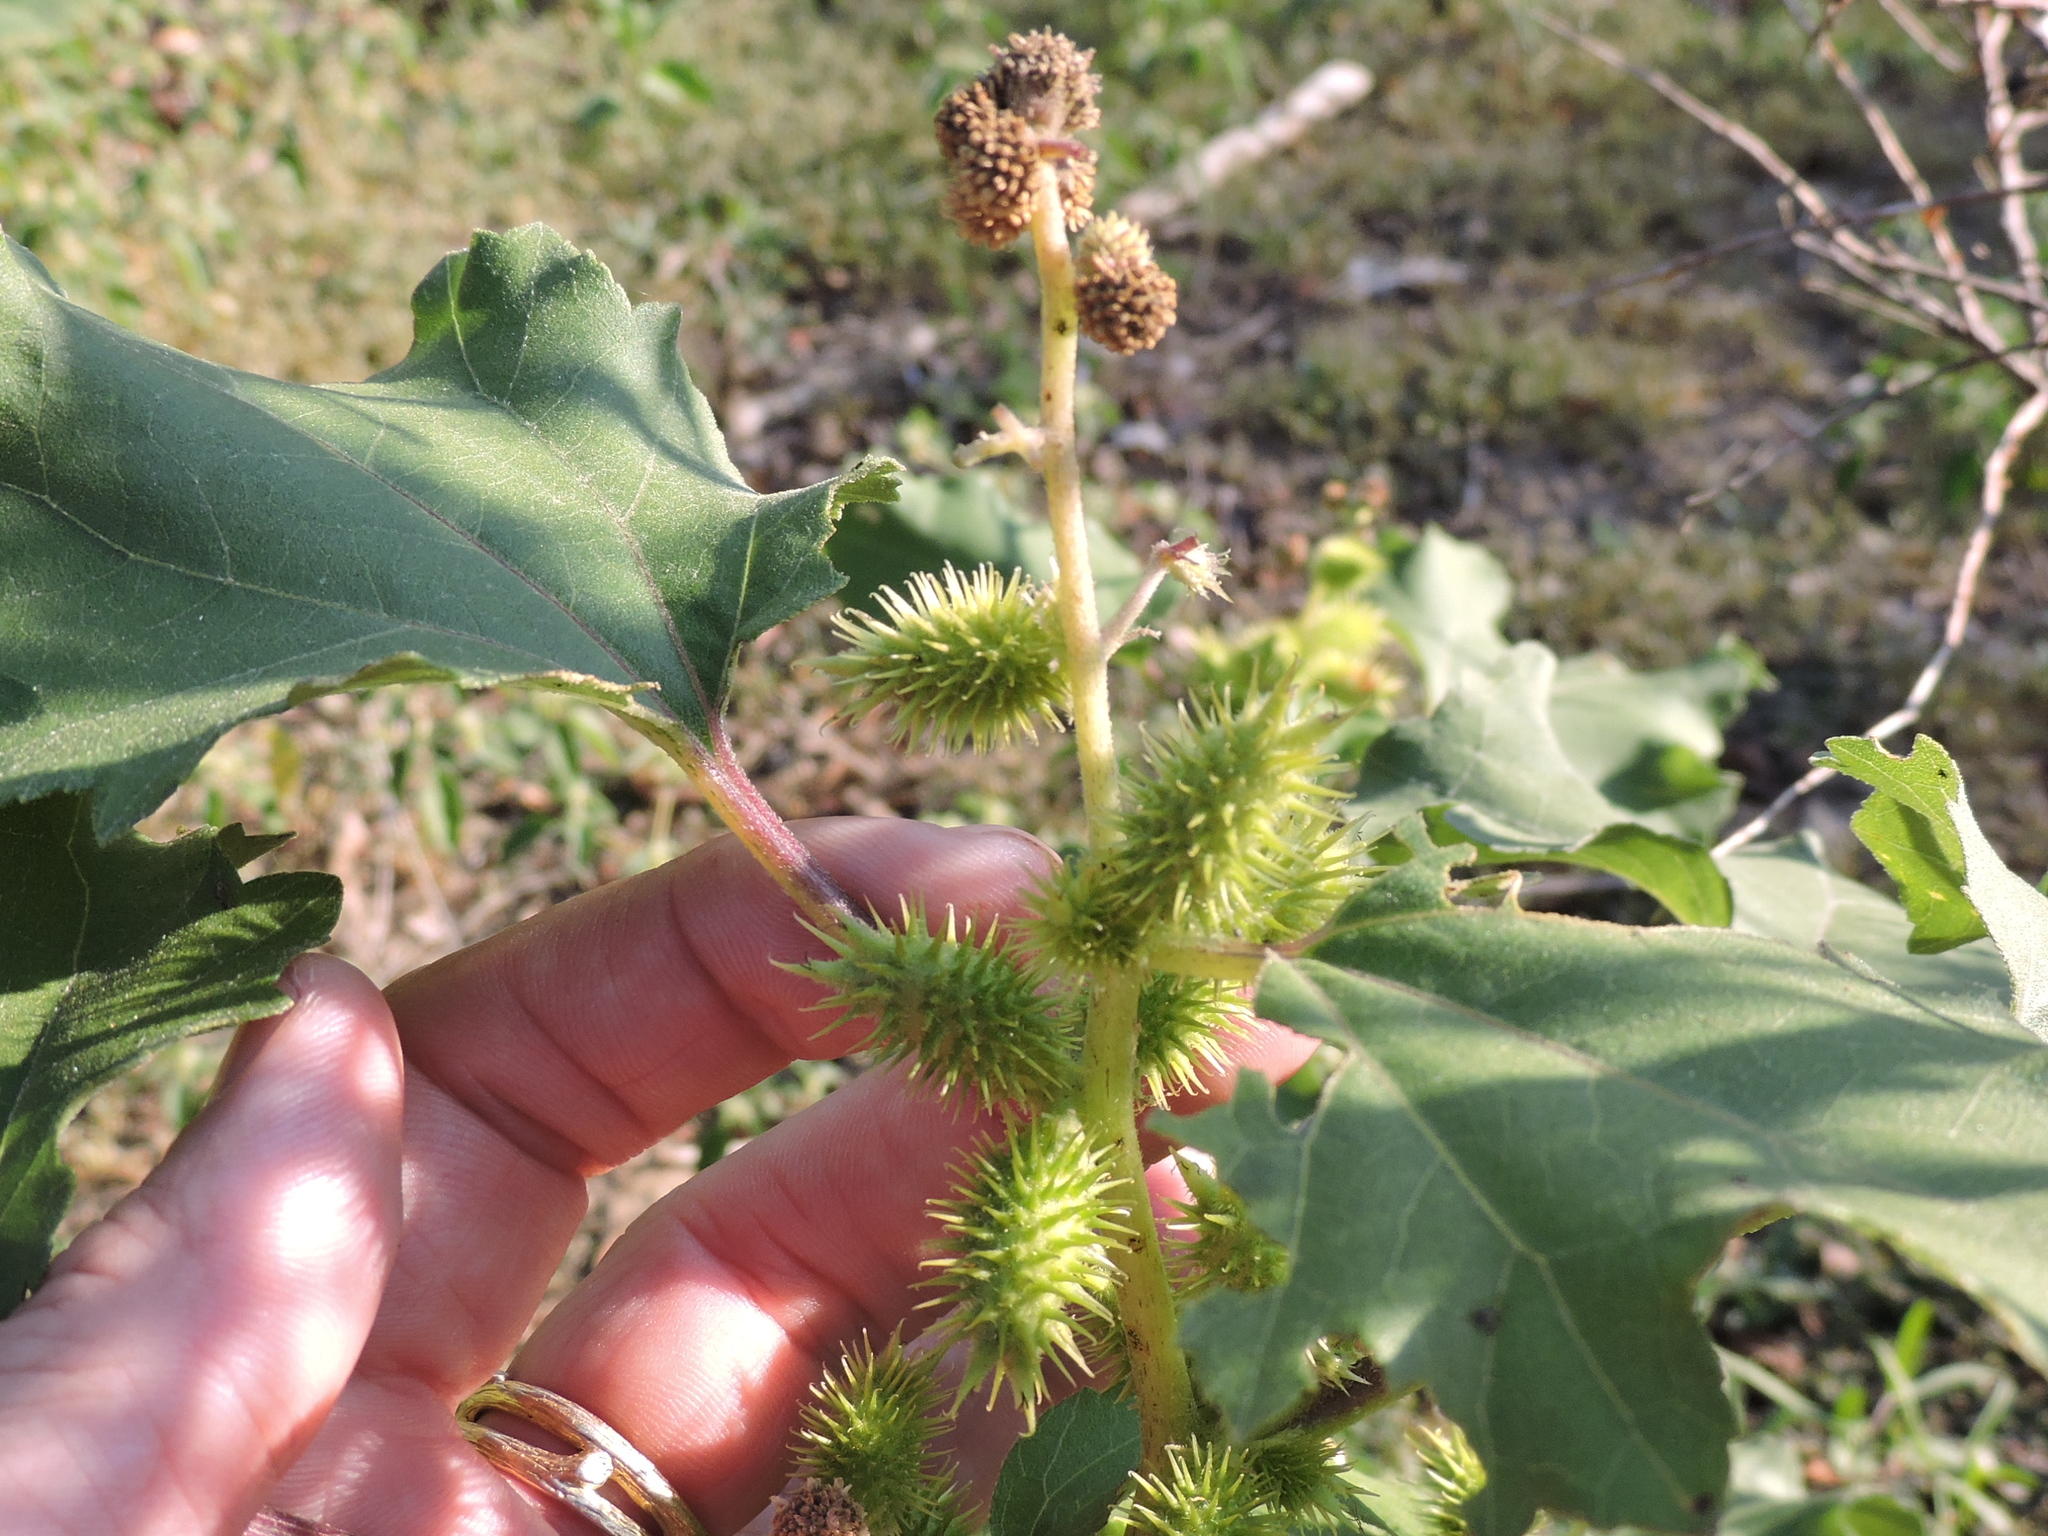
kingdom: Plantae
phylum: Tracheophyta
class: Magnoliopsida
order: Asterales
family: Asteraceae
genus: Xanthium
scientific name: Xanthium strumarium
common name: Rough cocklebur
